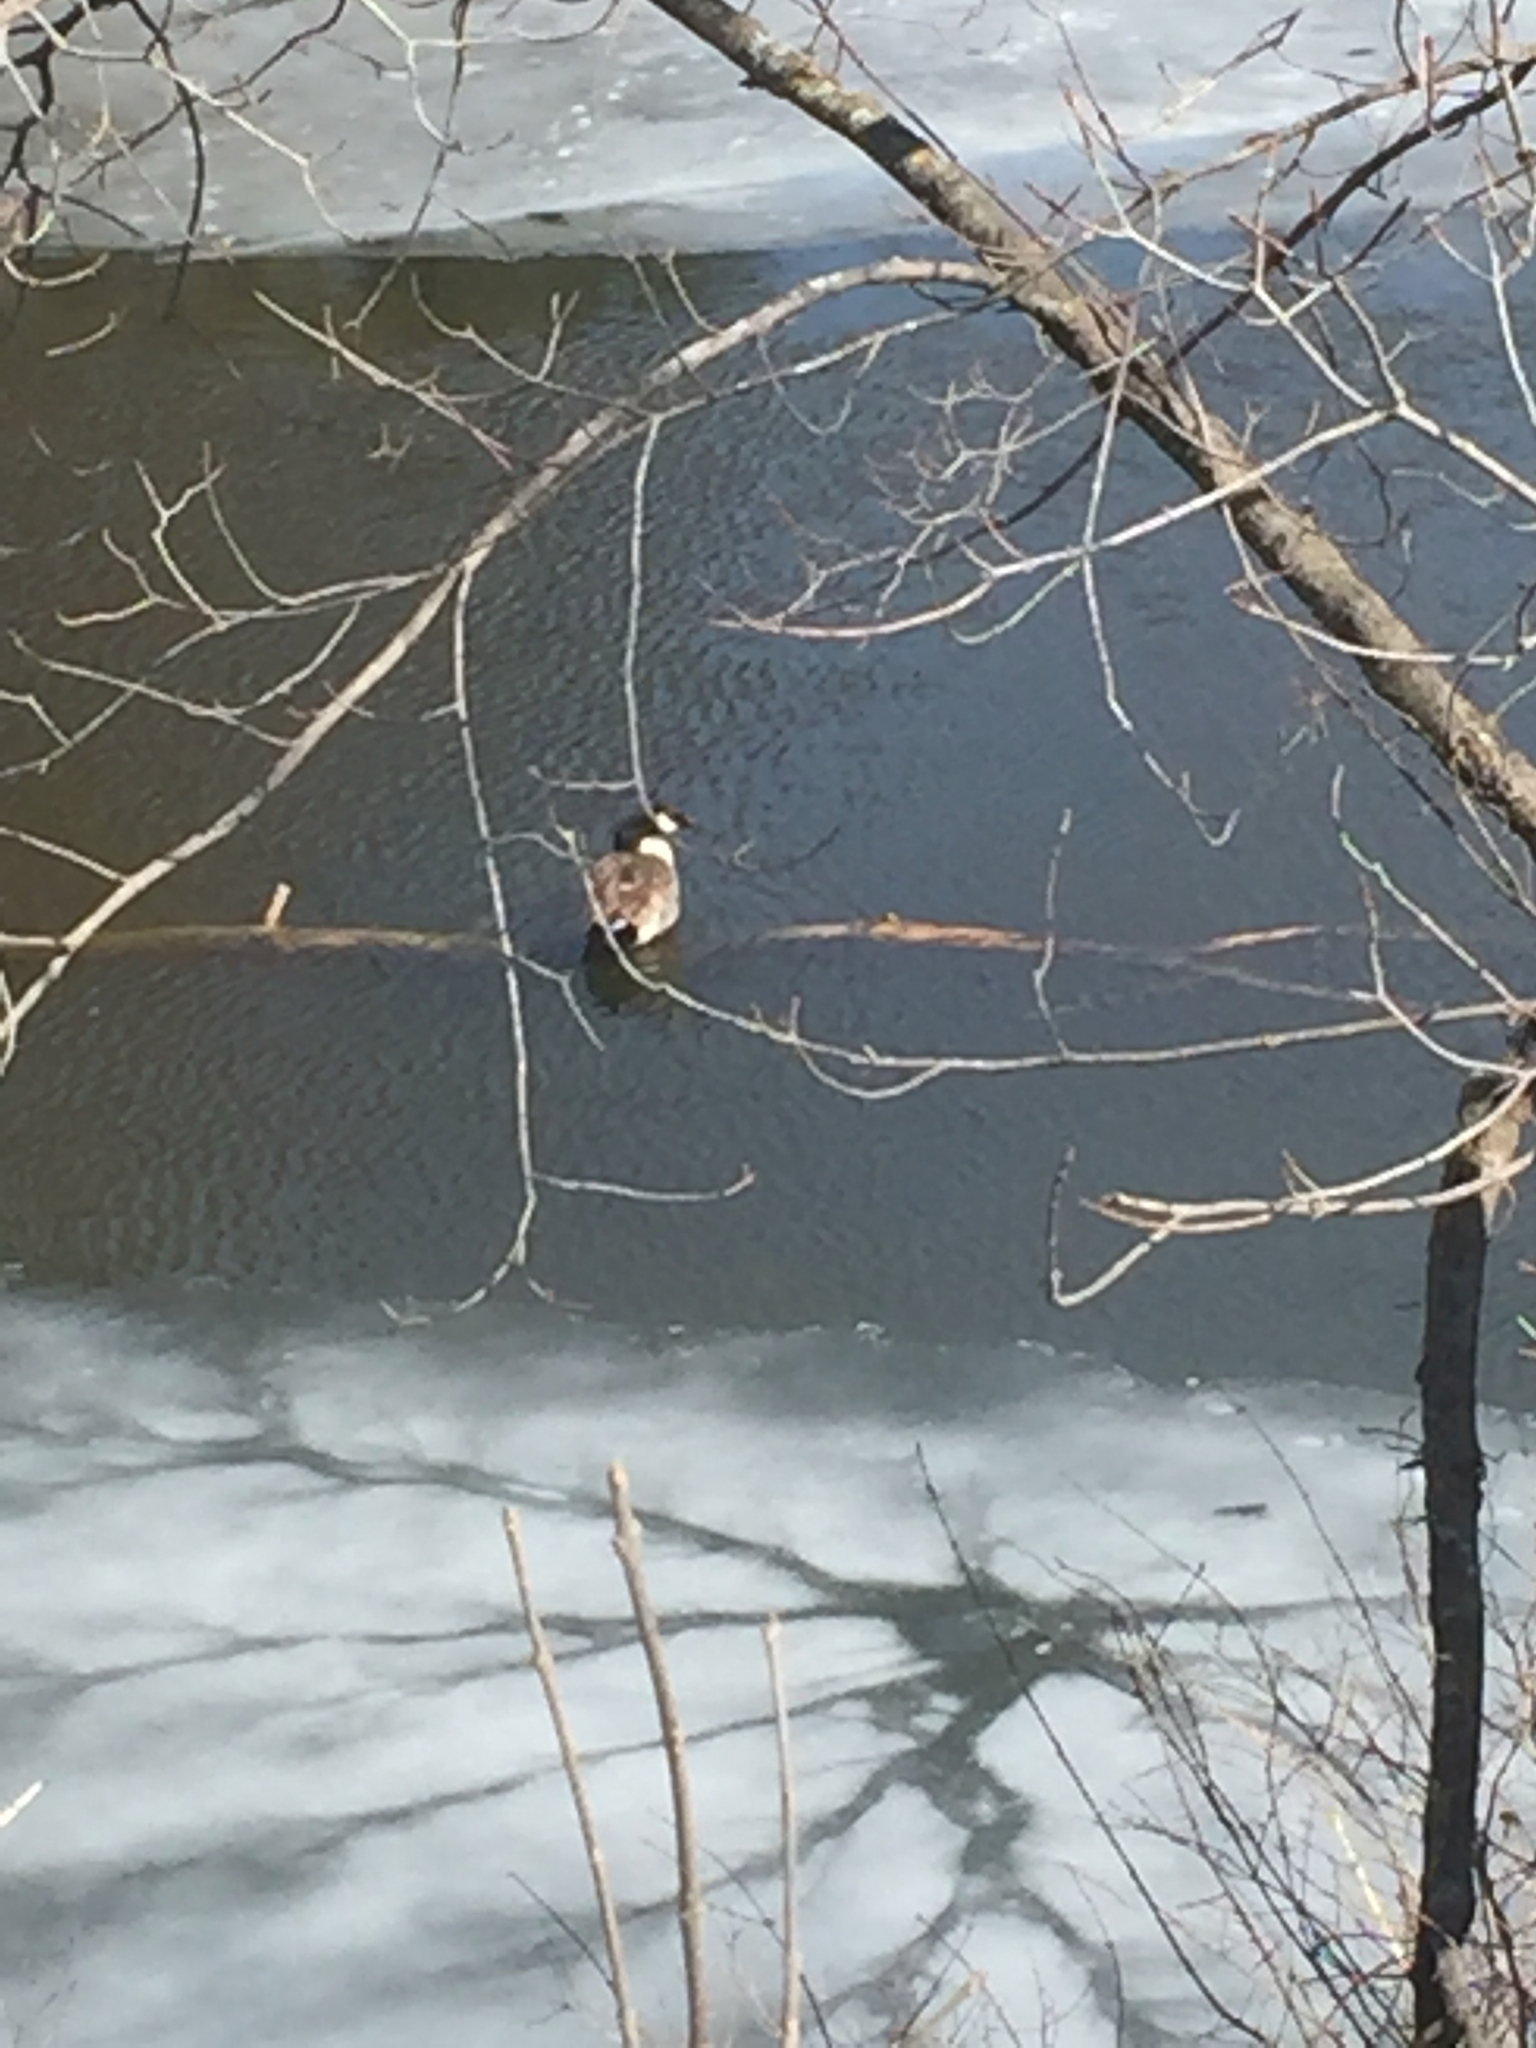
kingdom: Animalia
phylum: Chordata
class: Aves
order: Anseriformes
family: Anatidae
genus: Branta
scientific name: Branta canadensis
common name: Canada goose
